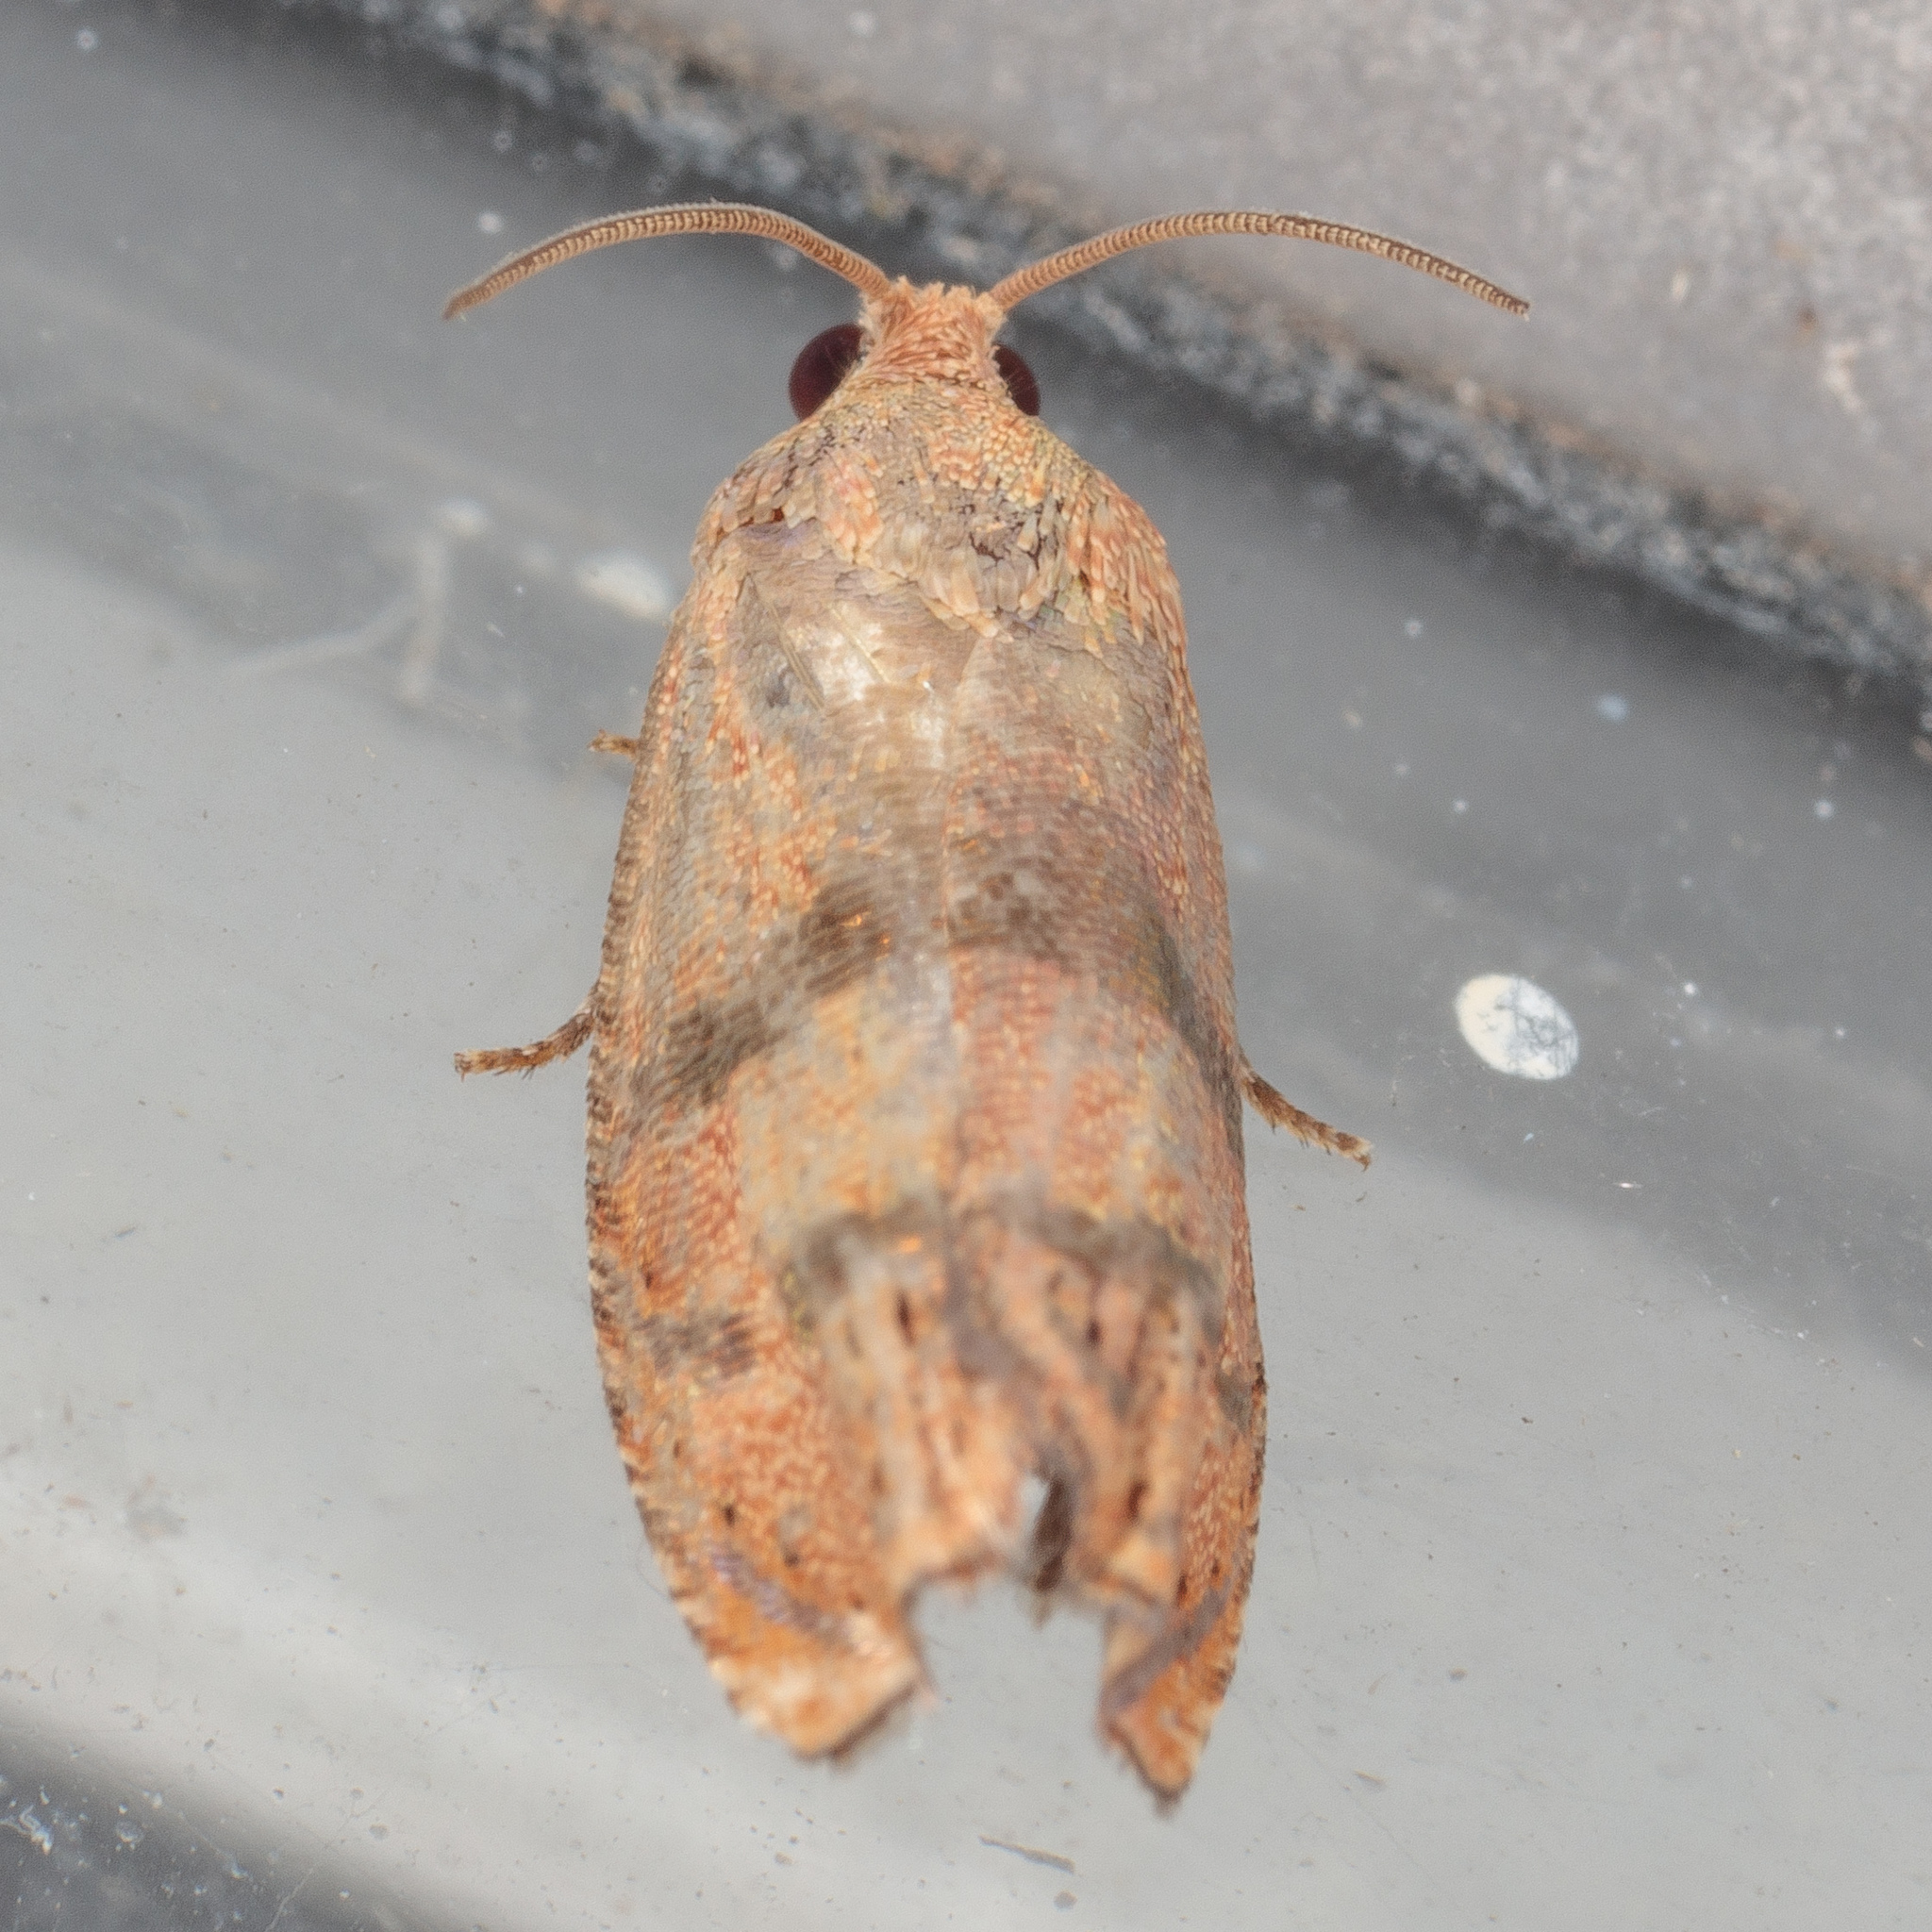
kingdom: Animalia
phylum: Arthropoda
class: Insecta
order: Lepidoptera
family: Tortricidae
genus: Cydia
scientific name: Cydia latiferreana
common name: Filbertworm moth
